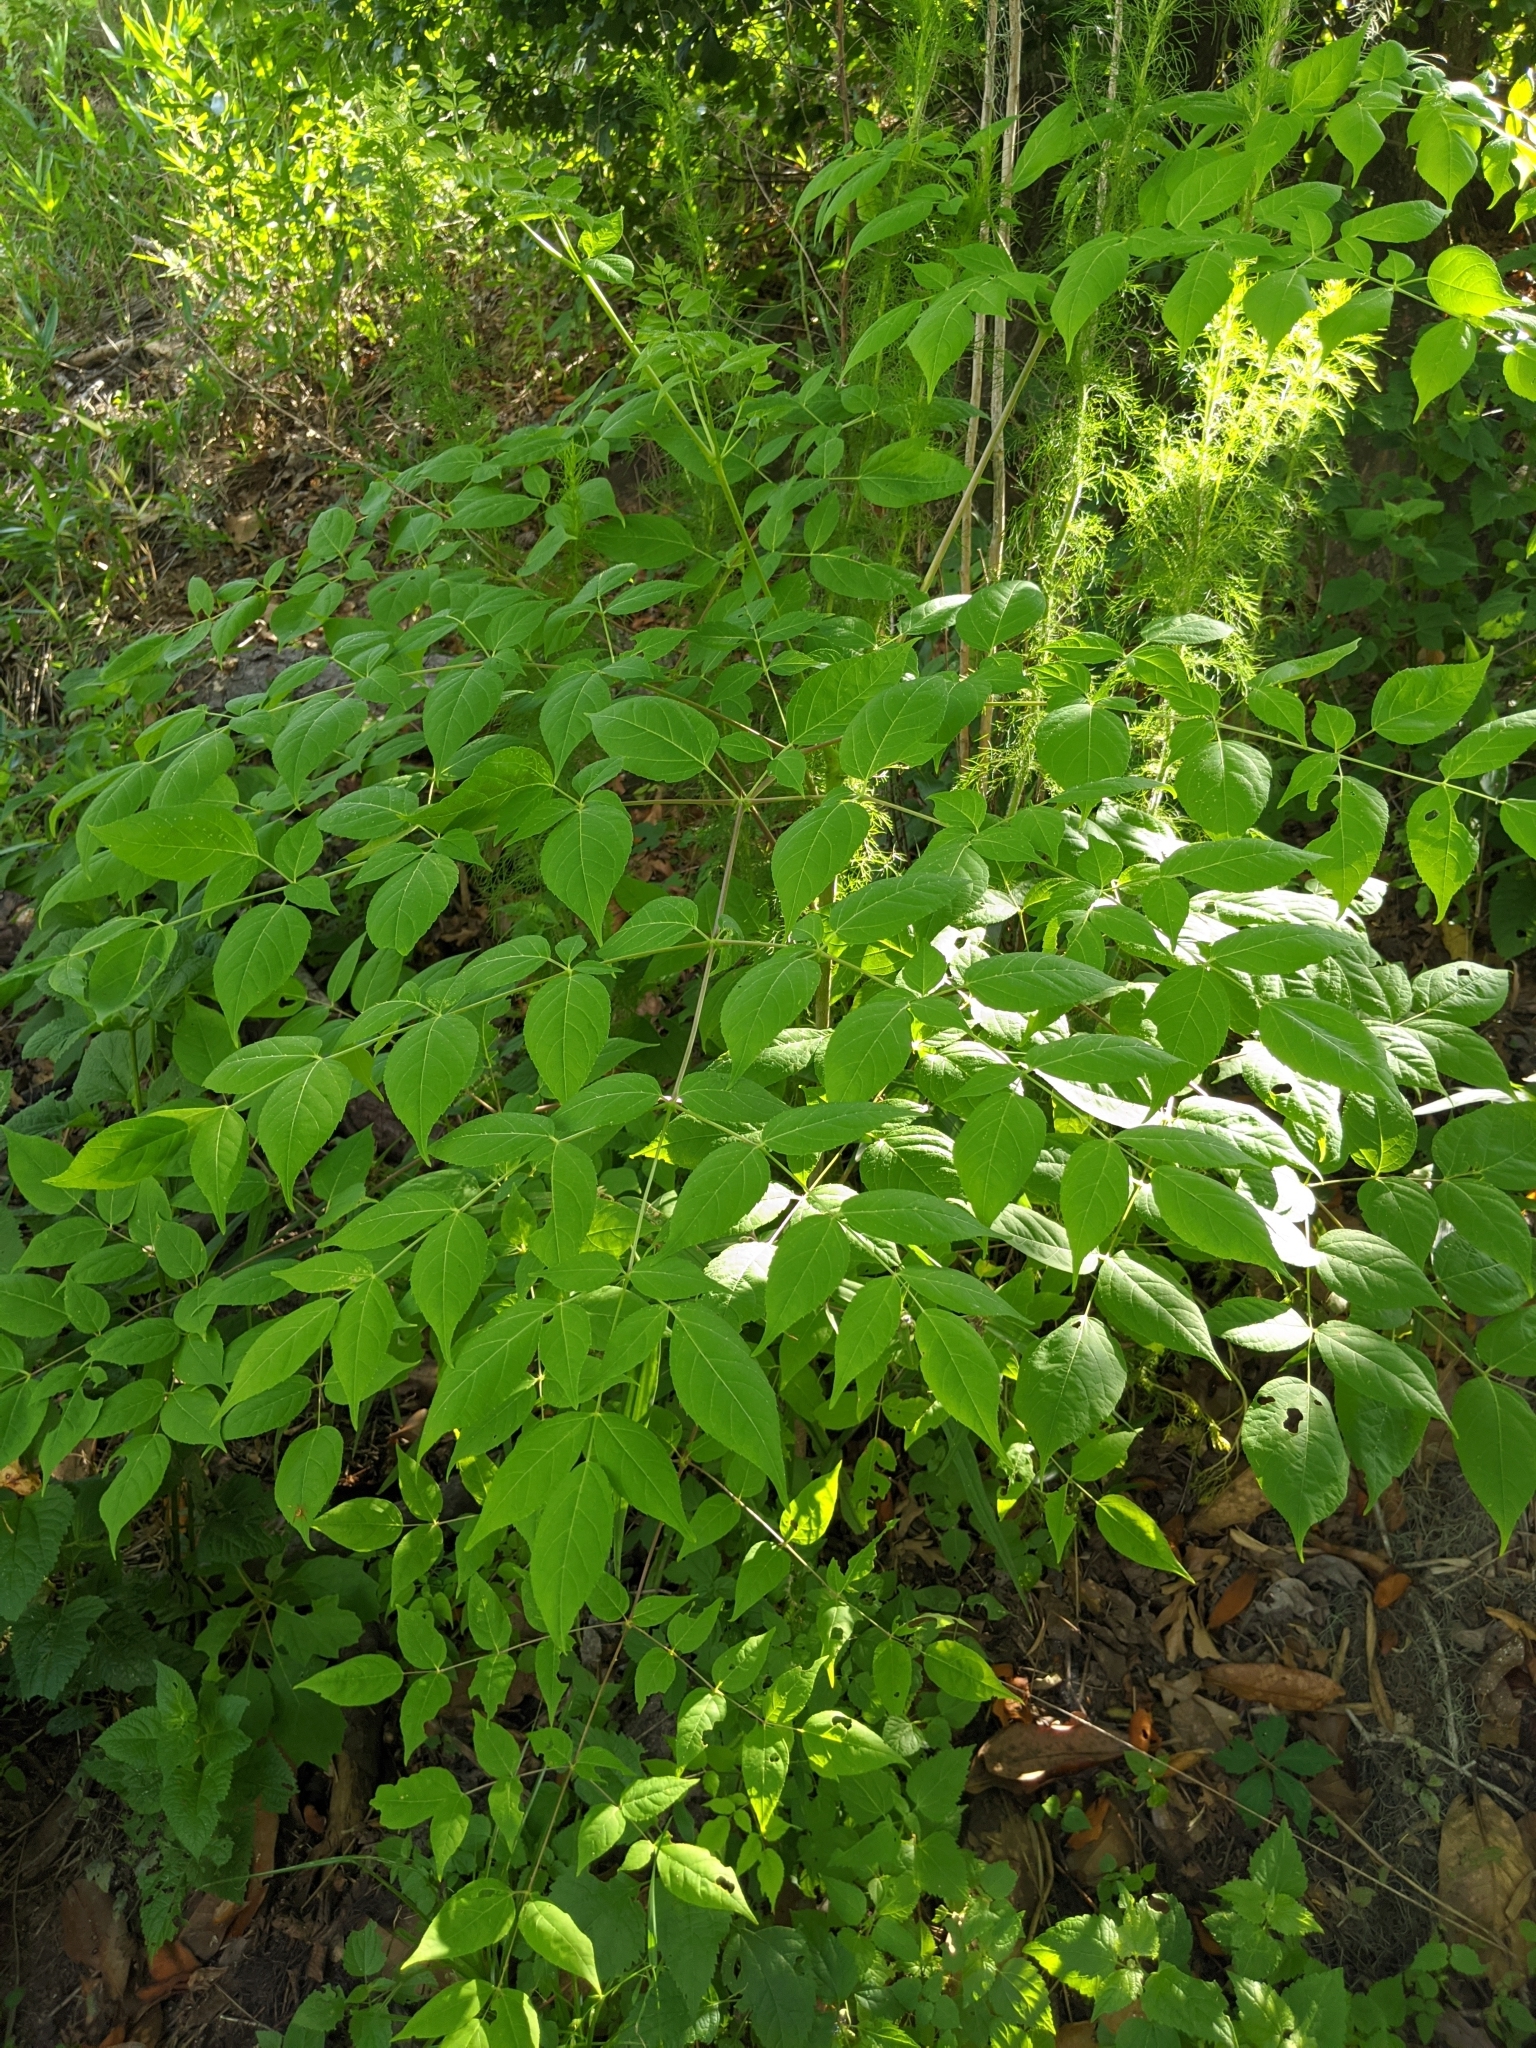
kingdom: Plantae
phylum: Tracheophyta
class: Magnoliopsida
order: Apiales
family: Araliaceae
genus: Aralia
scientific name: Aralia spinosa
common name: Hercules'-club
